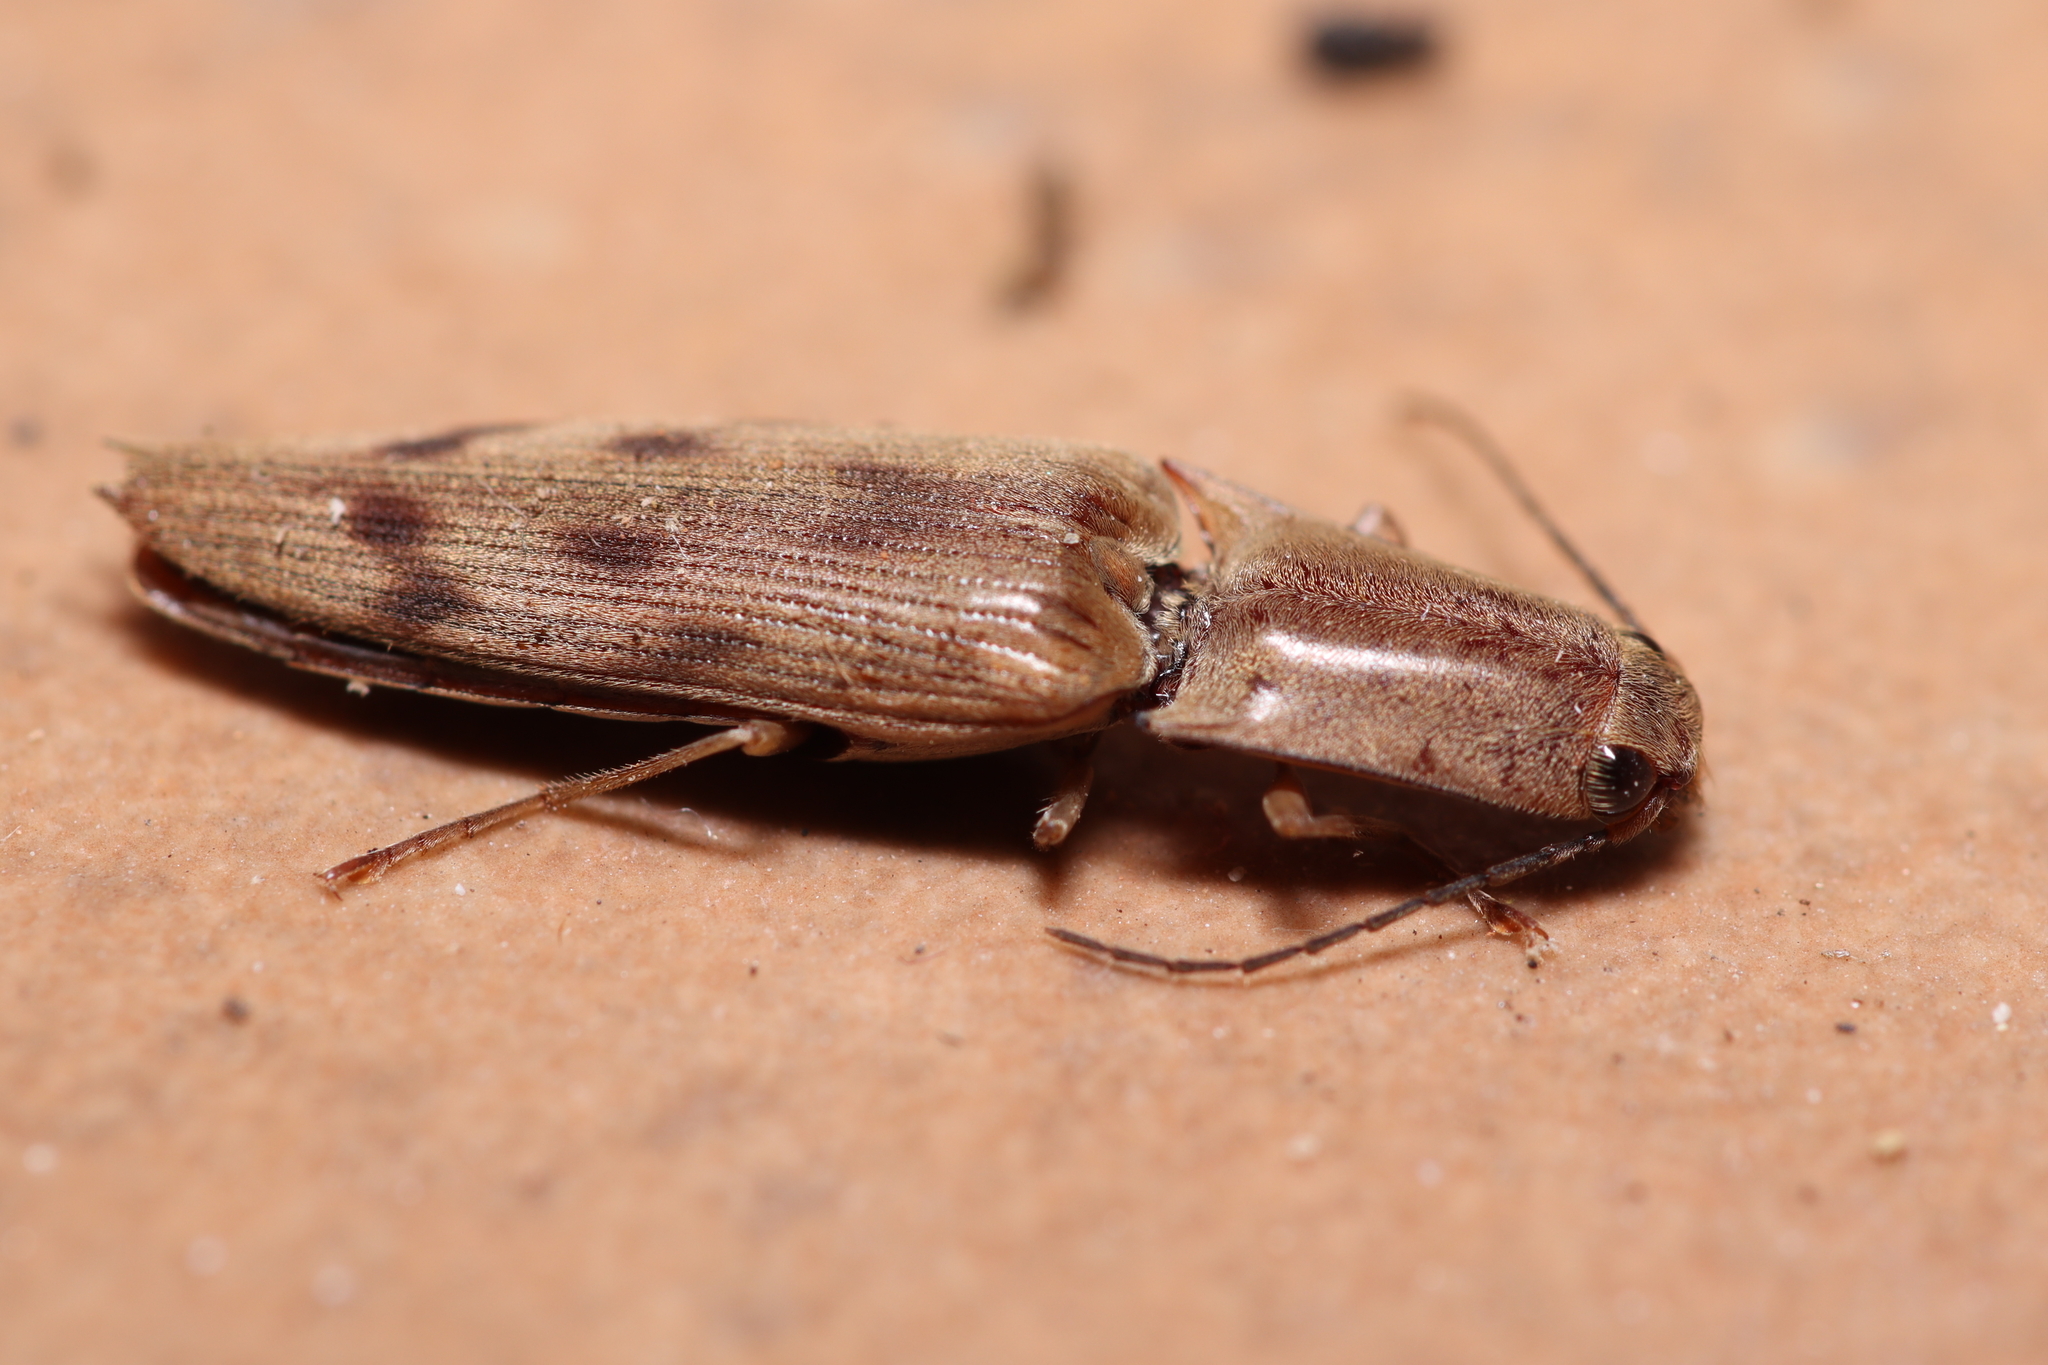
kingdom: Animalia
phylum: Arthropoda
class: Insecta
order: Coleoptera
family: Elateridae
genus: Monocrepidius
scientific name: Monocrepidius
